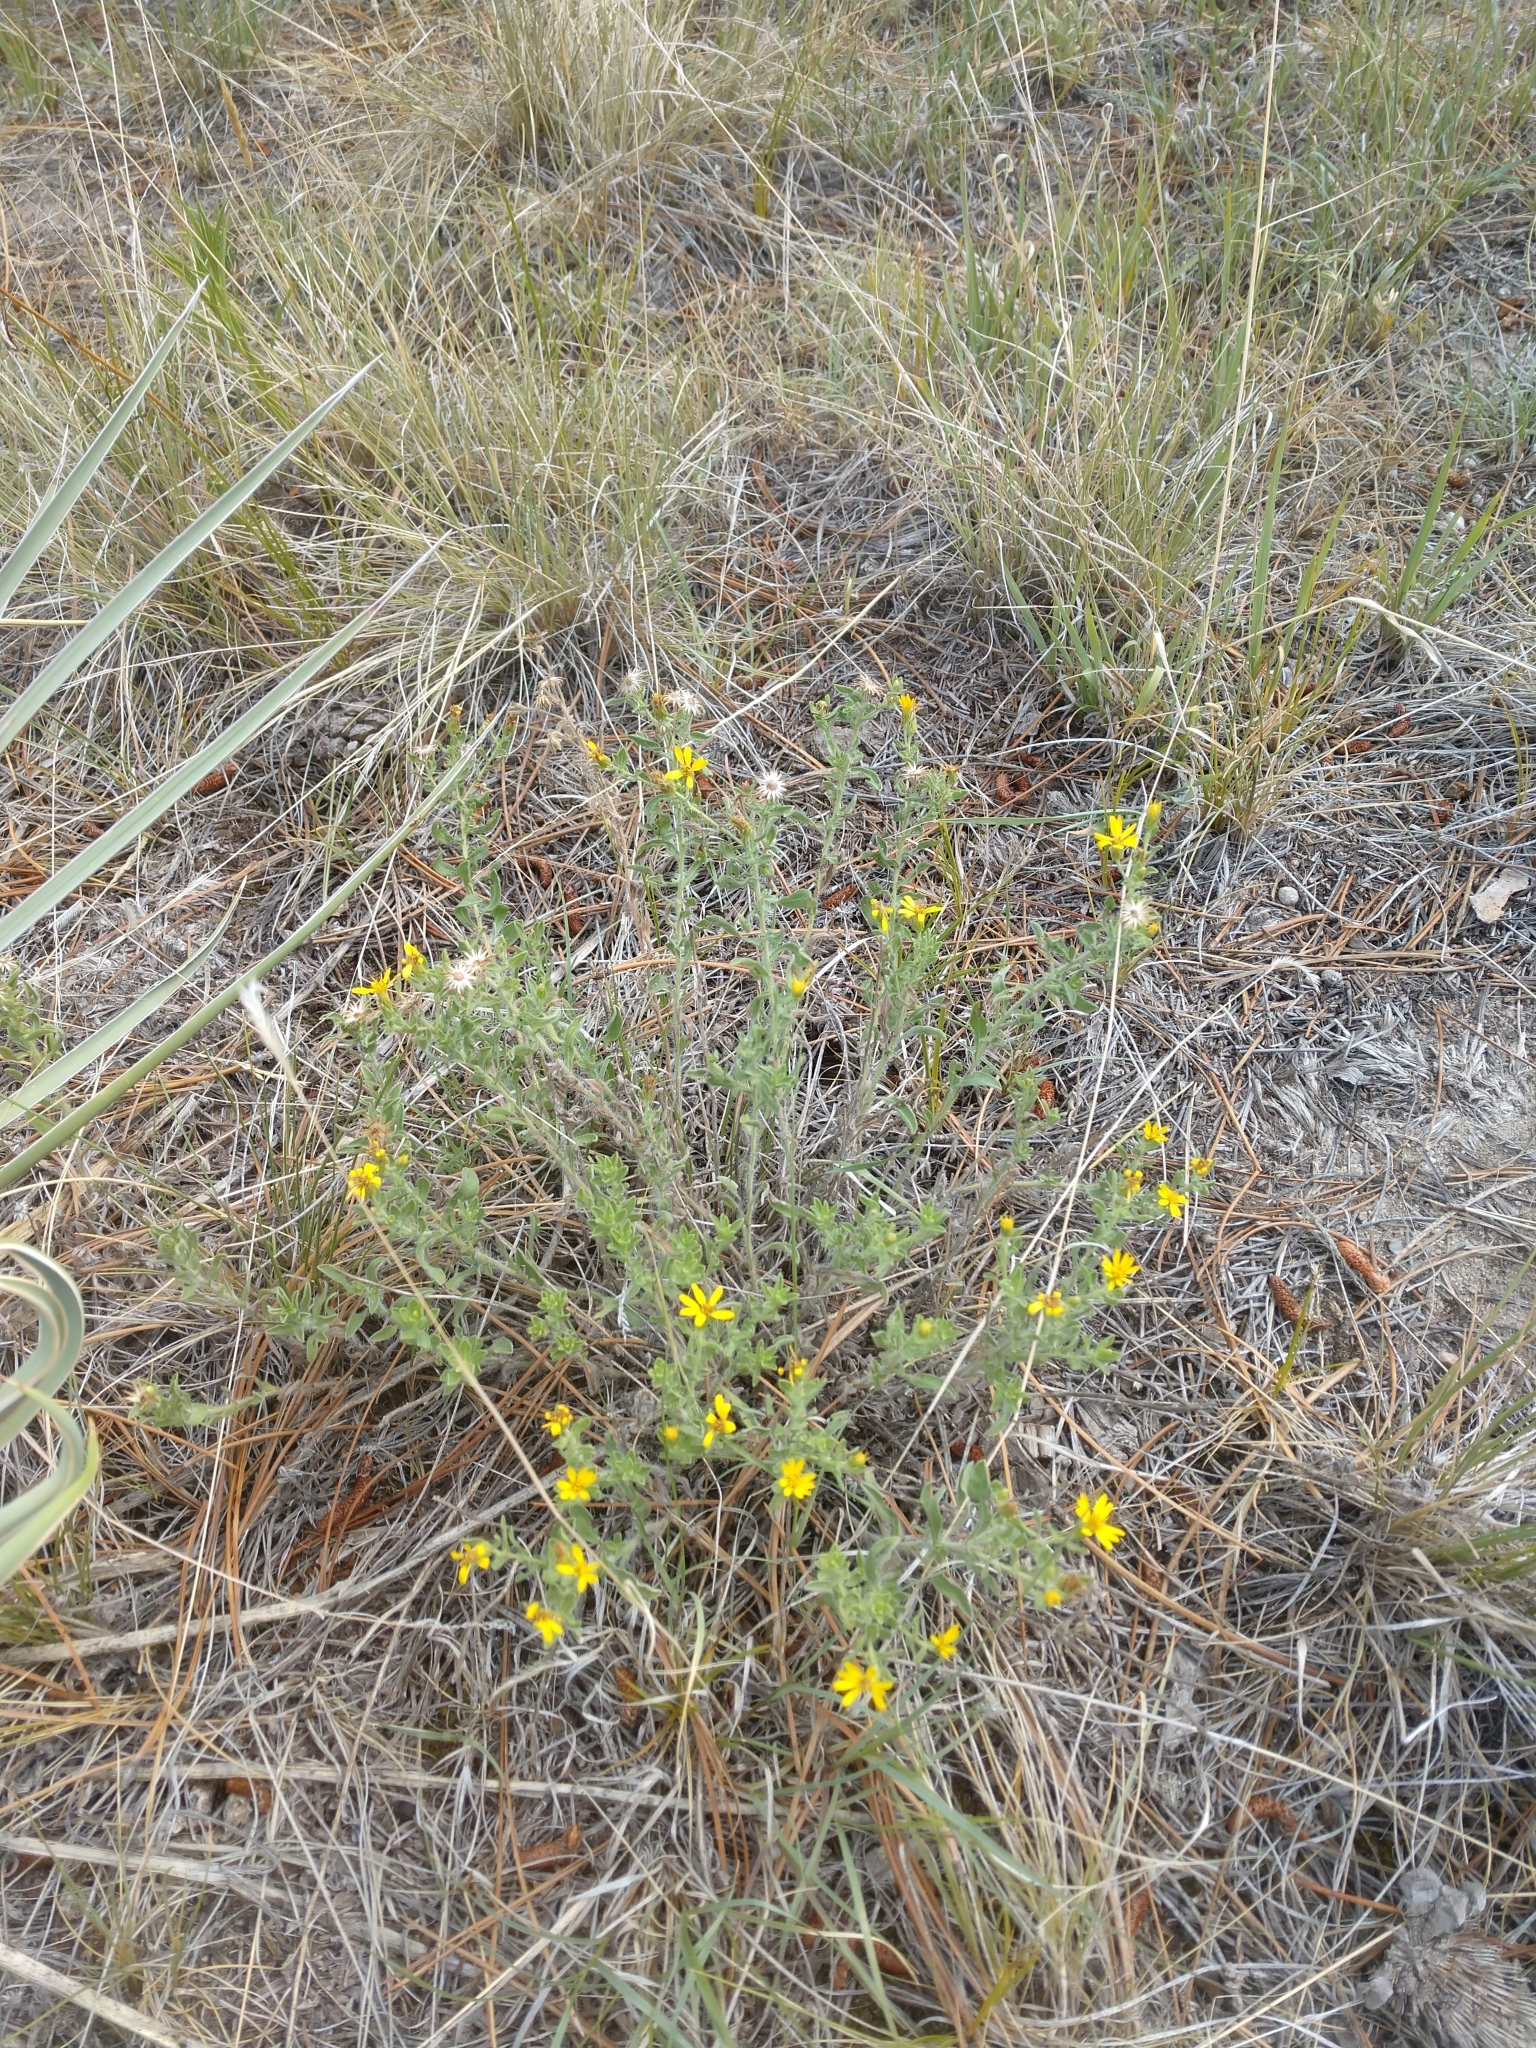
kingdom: Plantae
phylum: Tracheophyta
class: Magnoliopsida
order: Asterales
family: Asteraceae
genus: Heterotheca
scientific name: Heterotheca villosa
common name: Hairy false goldenaster
